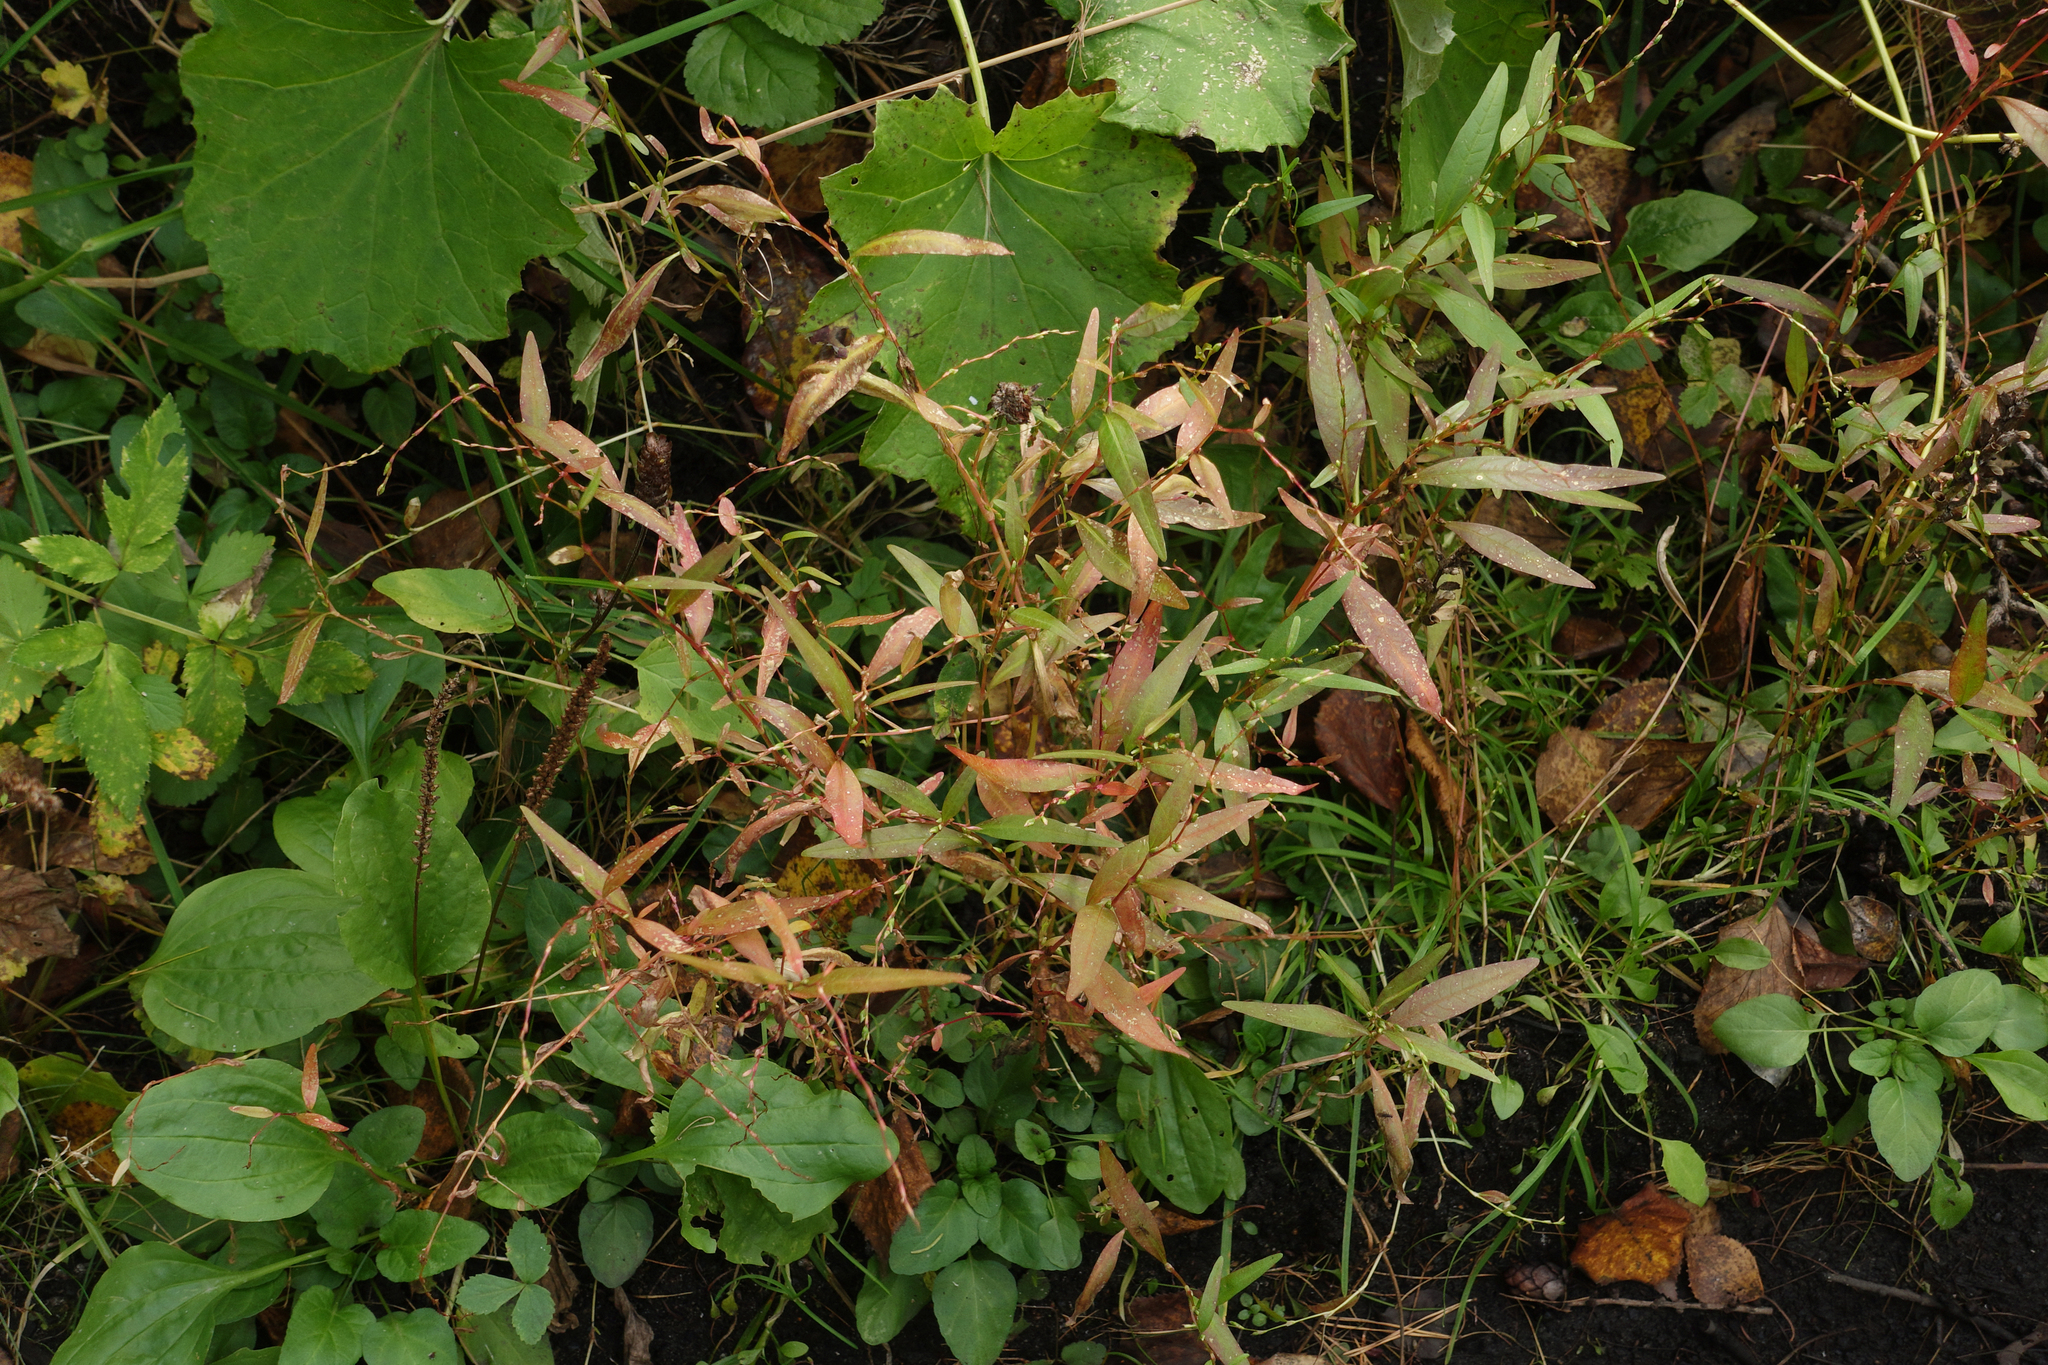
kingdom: Plantae
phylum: Tracheophyta
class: Magnoliopsida
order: Caryophyllales
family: Polygonaceae
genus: Persicaria
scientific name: Persicaria hydropiper
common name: Water-pepper
